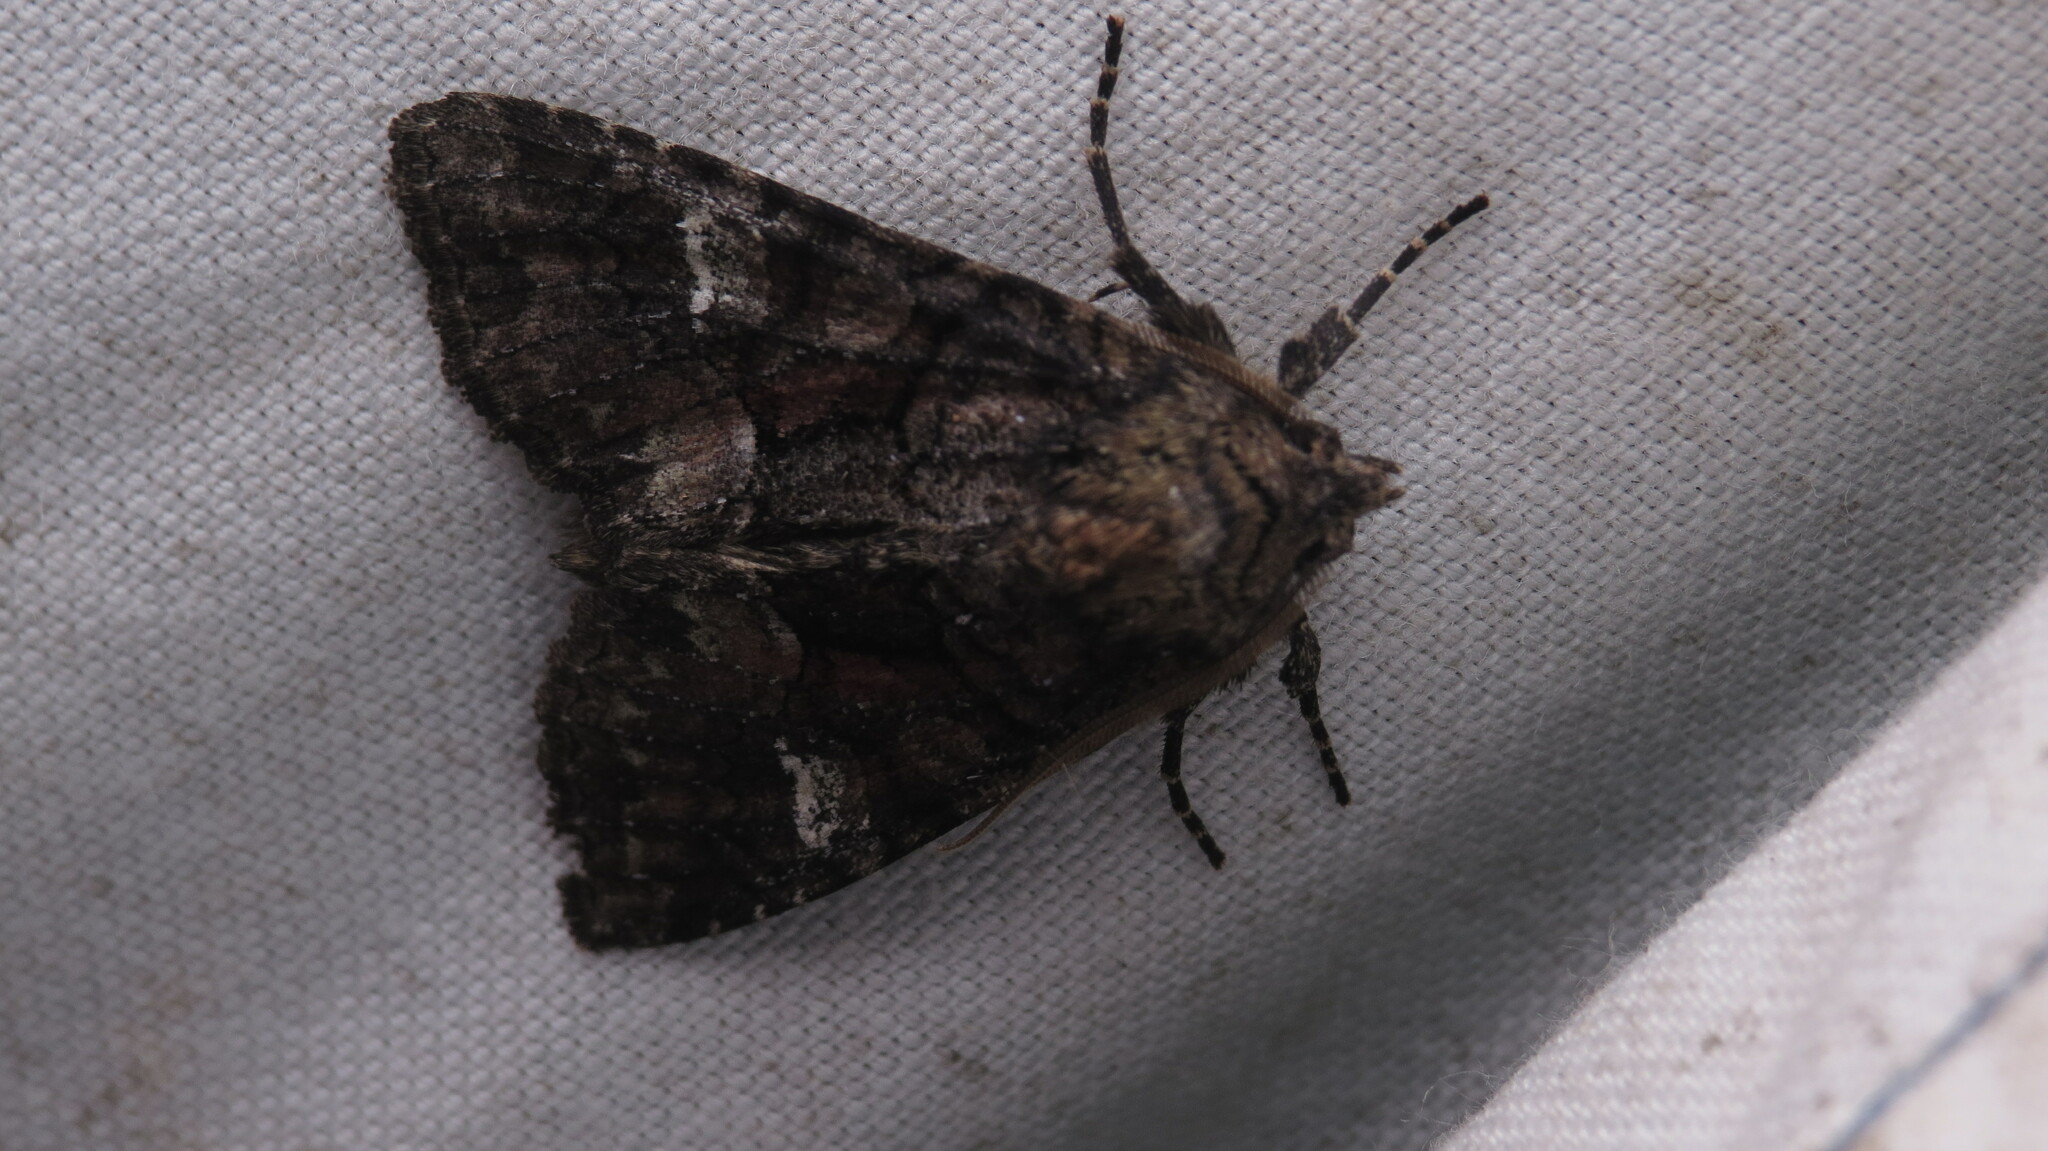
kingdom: Animalia
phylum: Arthropoda
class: Insecta
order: Lepidoptera
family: Noctuidae
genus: Fishia
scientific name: Fishia illocata
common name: Wandering brocade moth
